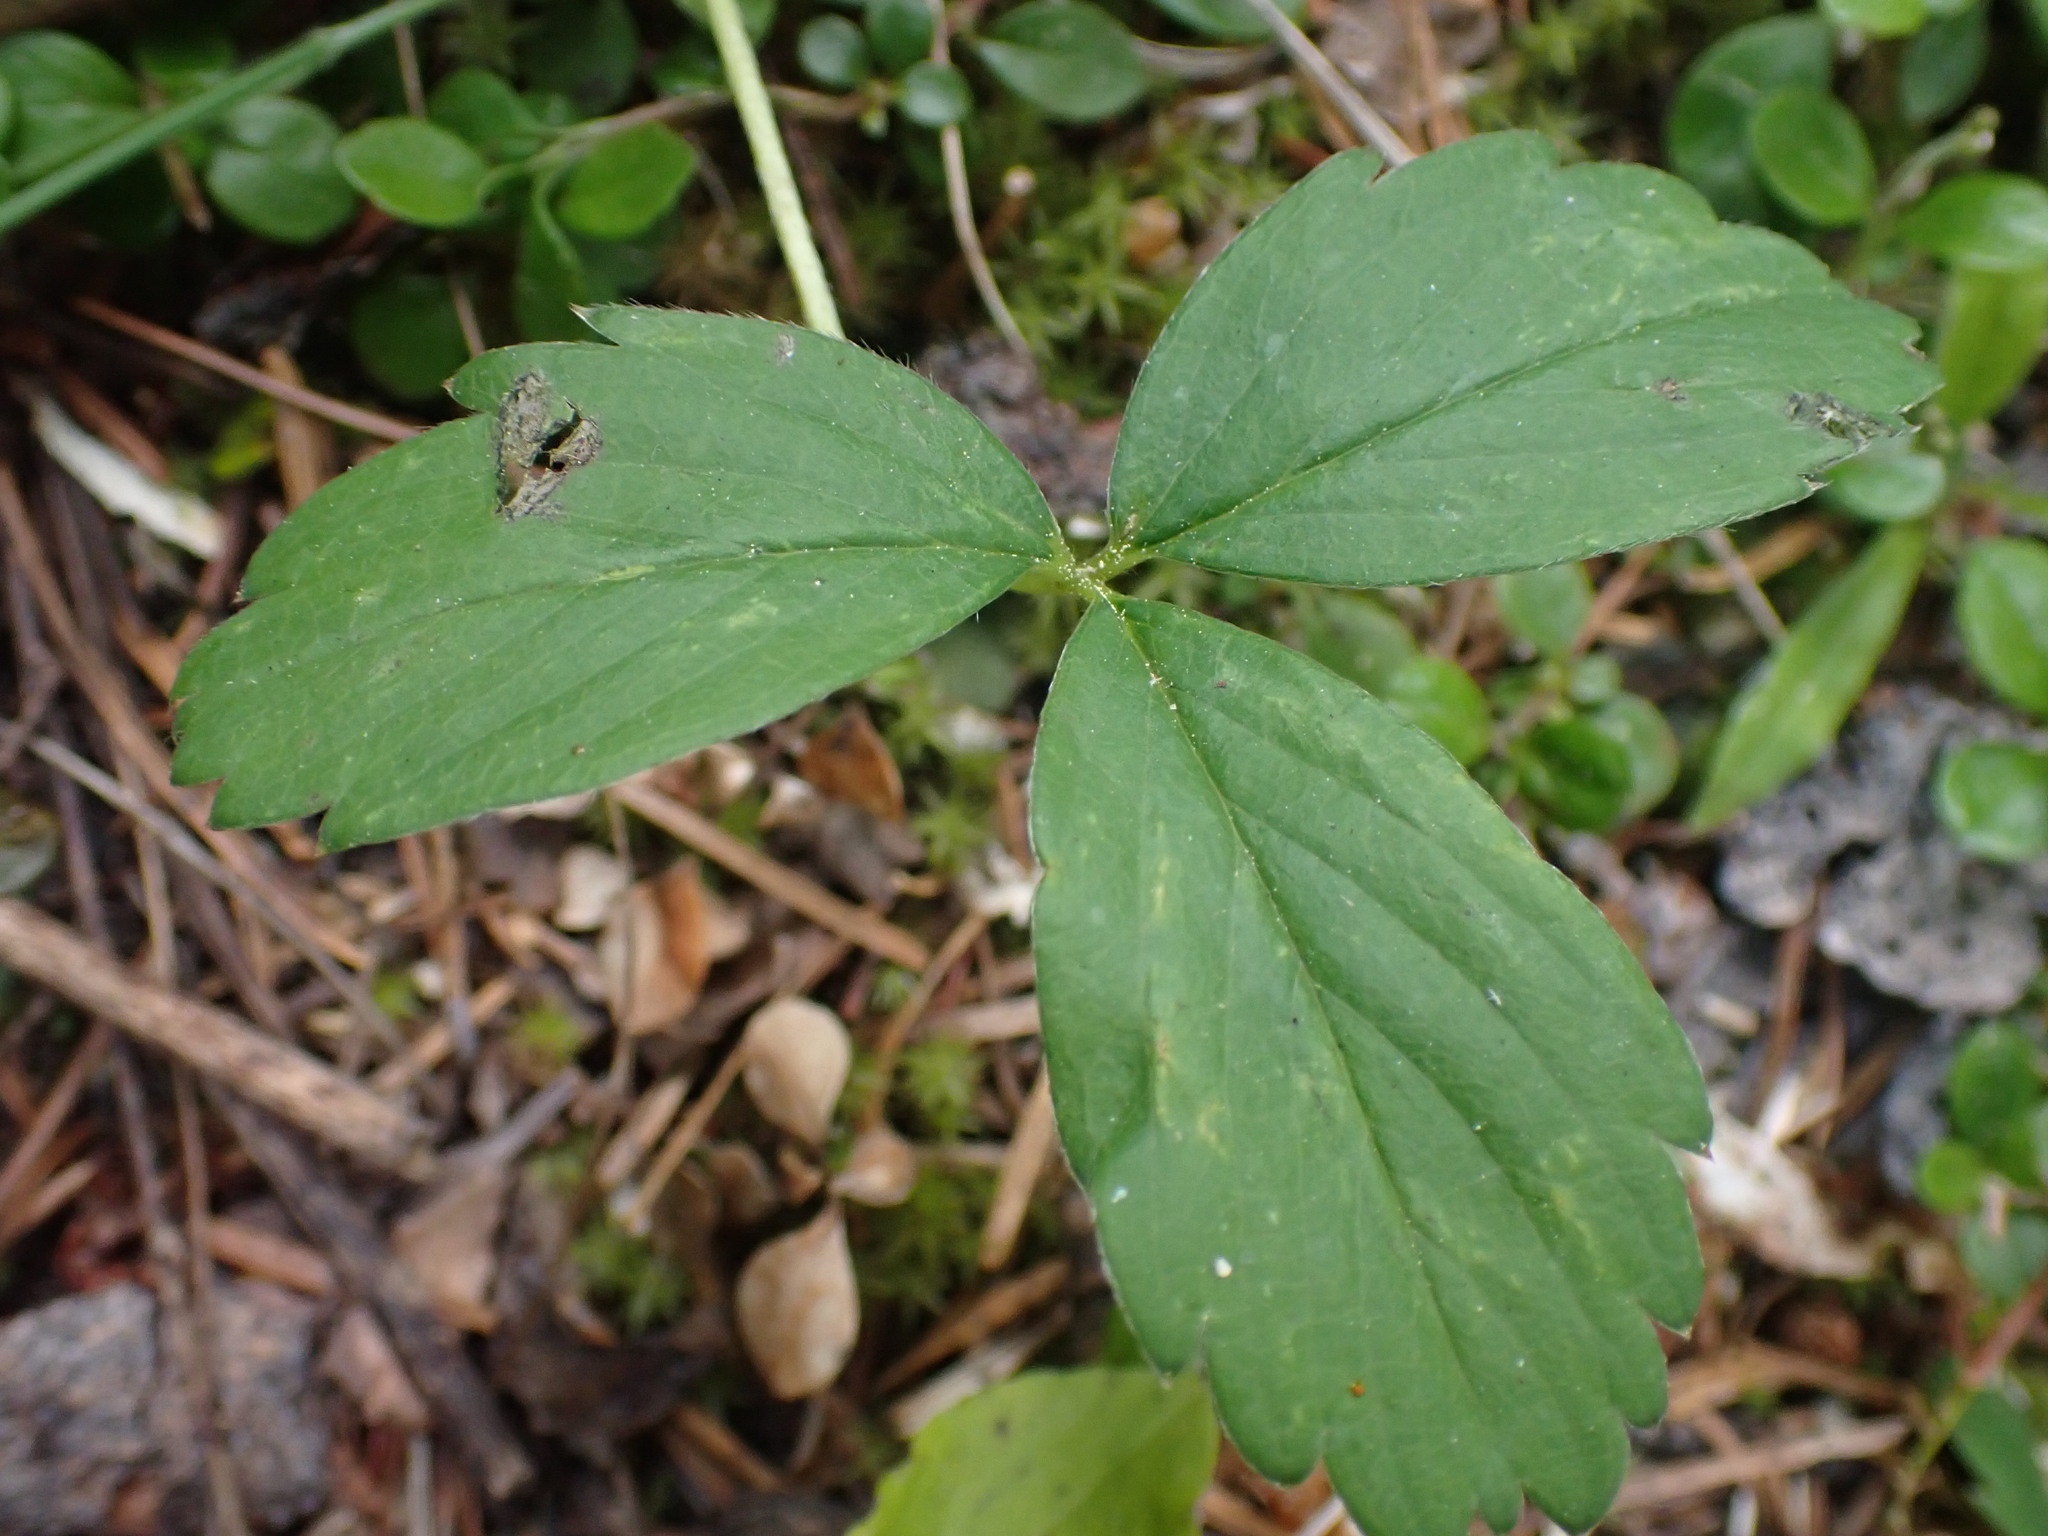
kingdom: Plantae
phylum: Tracheophyta
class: Magnoliopsida
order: Rosales
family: Rosaceae
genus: Fragaria
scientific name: Fragaria virginiana
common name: Thickleaved wild strawberry
